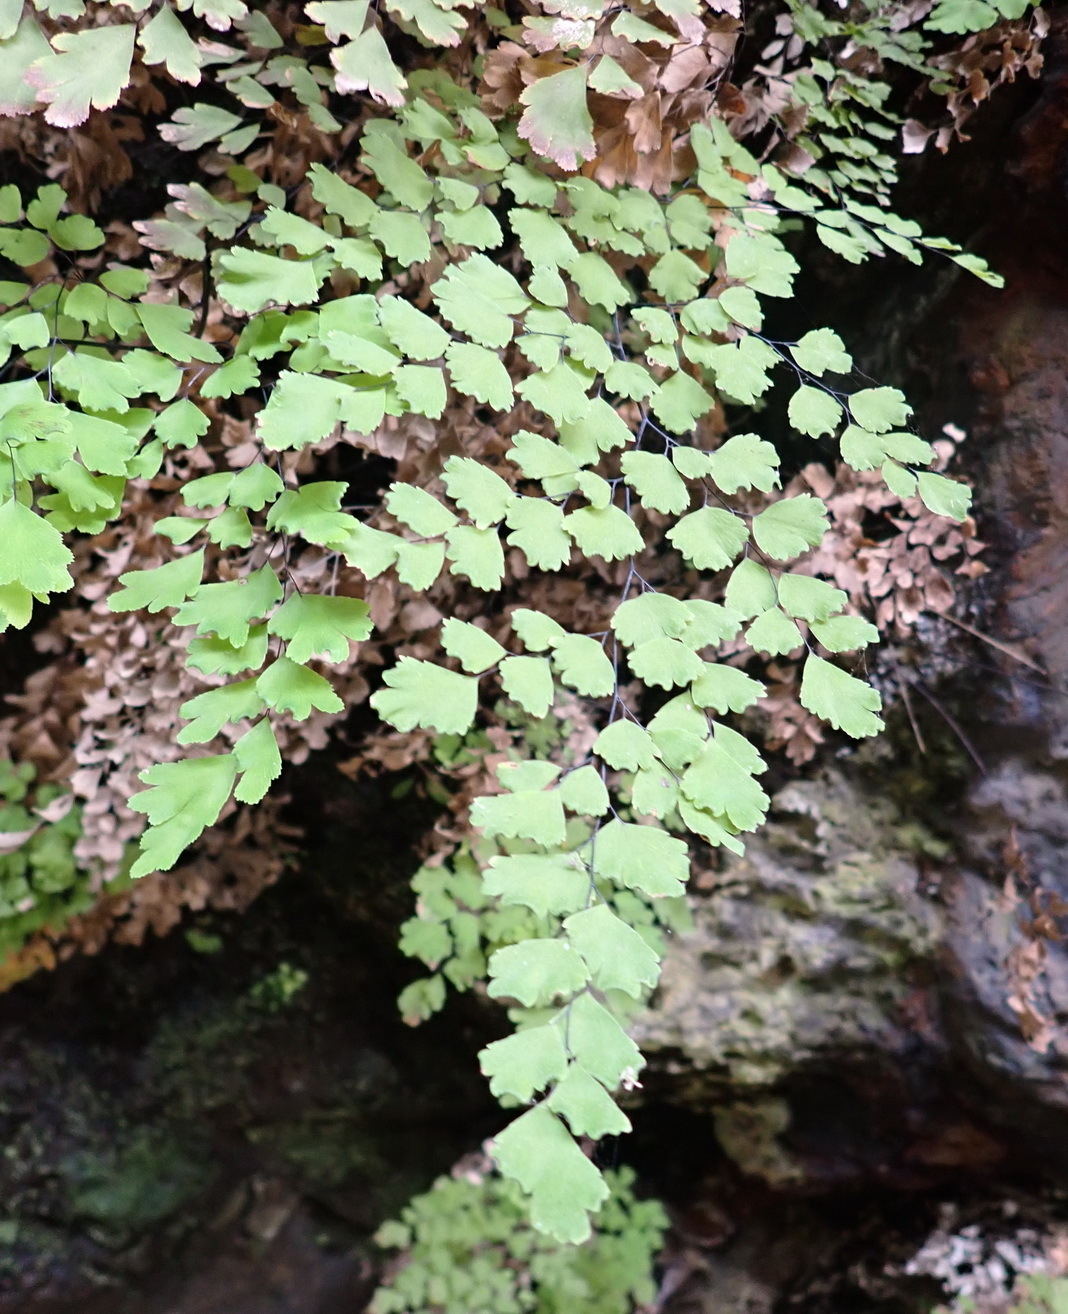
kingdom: Plantae
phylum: Tracheophyta
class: Polypodiopsida
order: Polypodiales
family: Pteridaceae
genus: Adiantum
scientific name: Adiantum capillus-veneris
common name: Maidenhair fern
